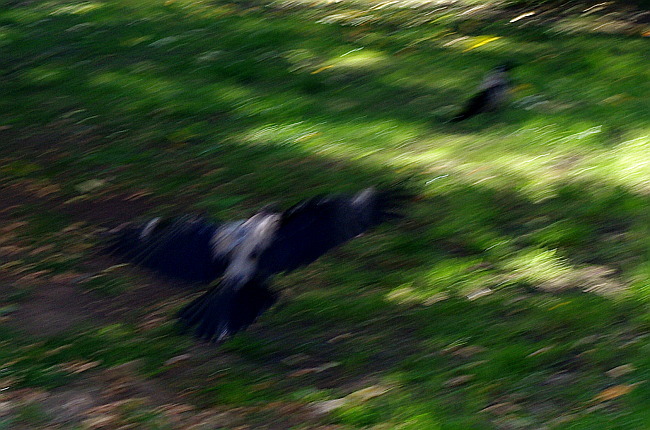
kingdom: Animalia
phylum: Chordata
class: Aves
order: Passeriformes
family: Corvidae
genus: Corvus
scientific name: Corvus cornix
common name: Hooded crow
